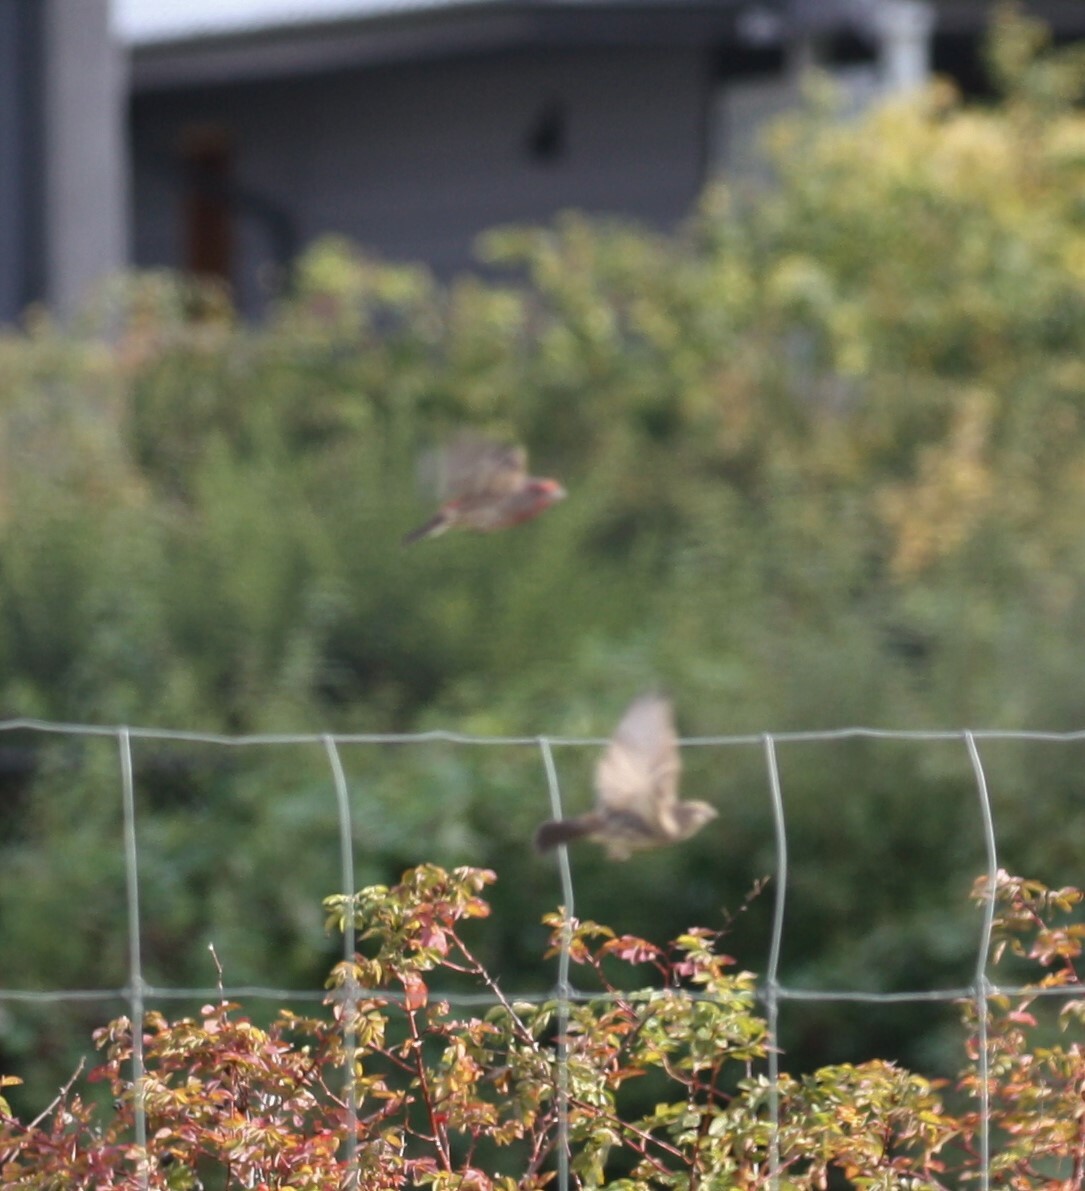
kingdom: Animalia
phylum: Chordata
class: Aves
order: Passeriformes
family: Fringillidae
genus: Haemorhous
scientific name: Haemorhous mexicanus
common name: House finch
